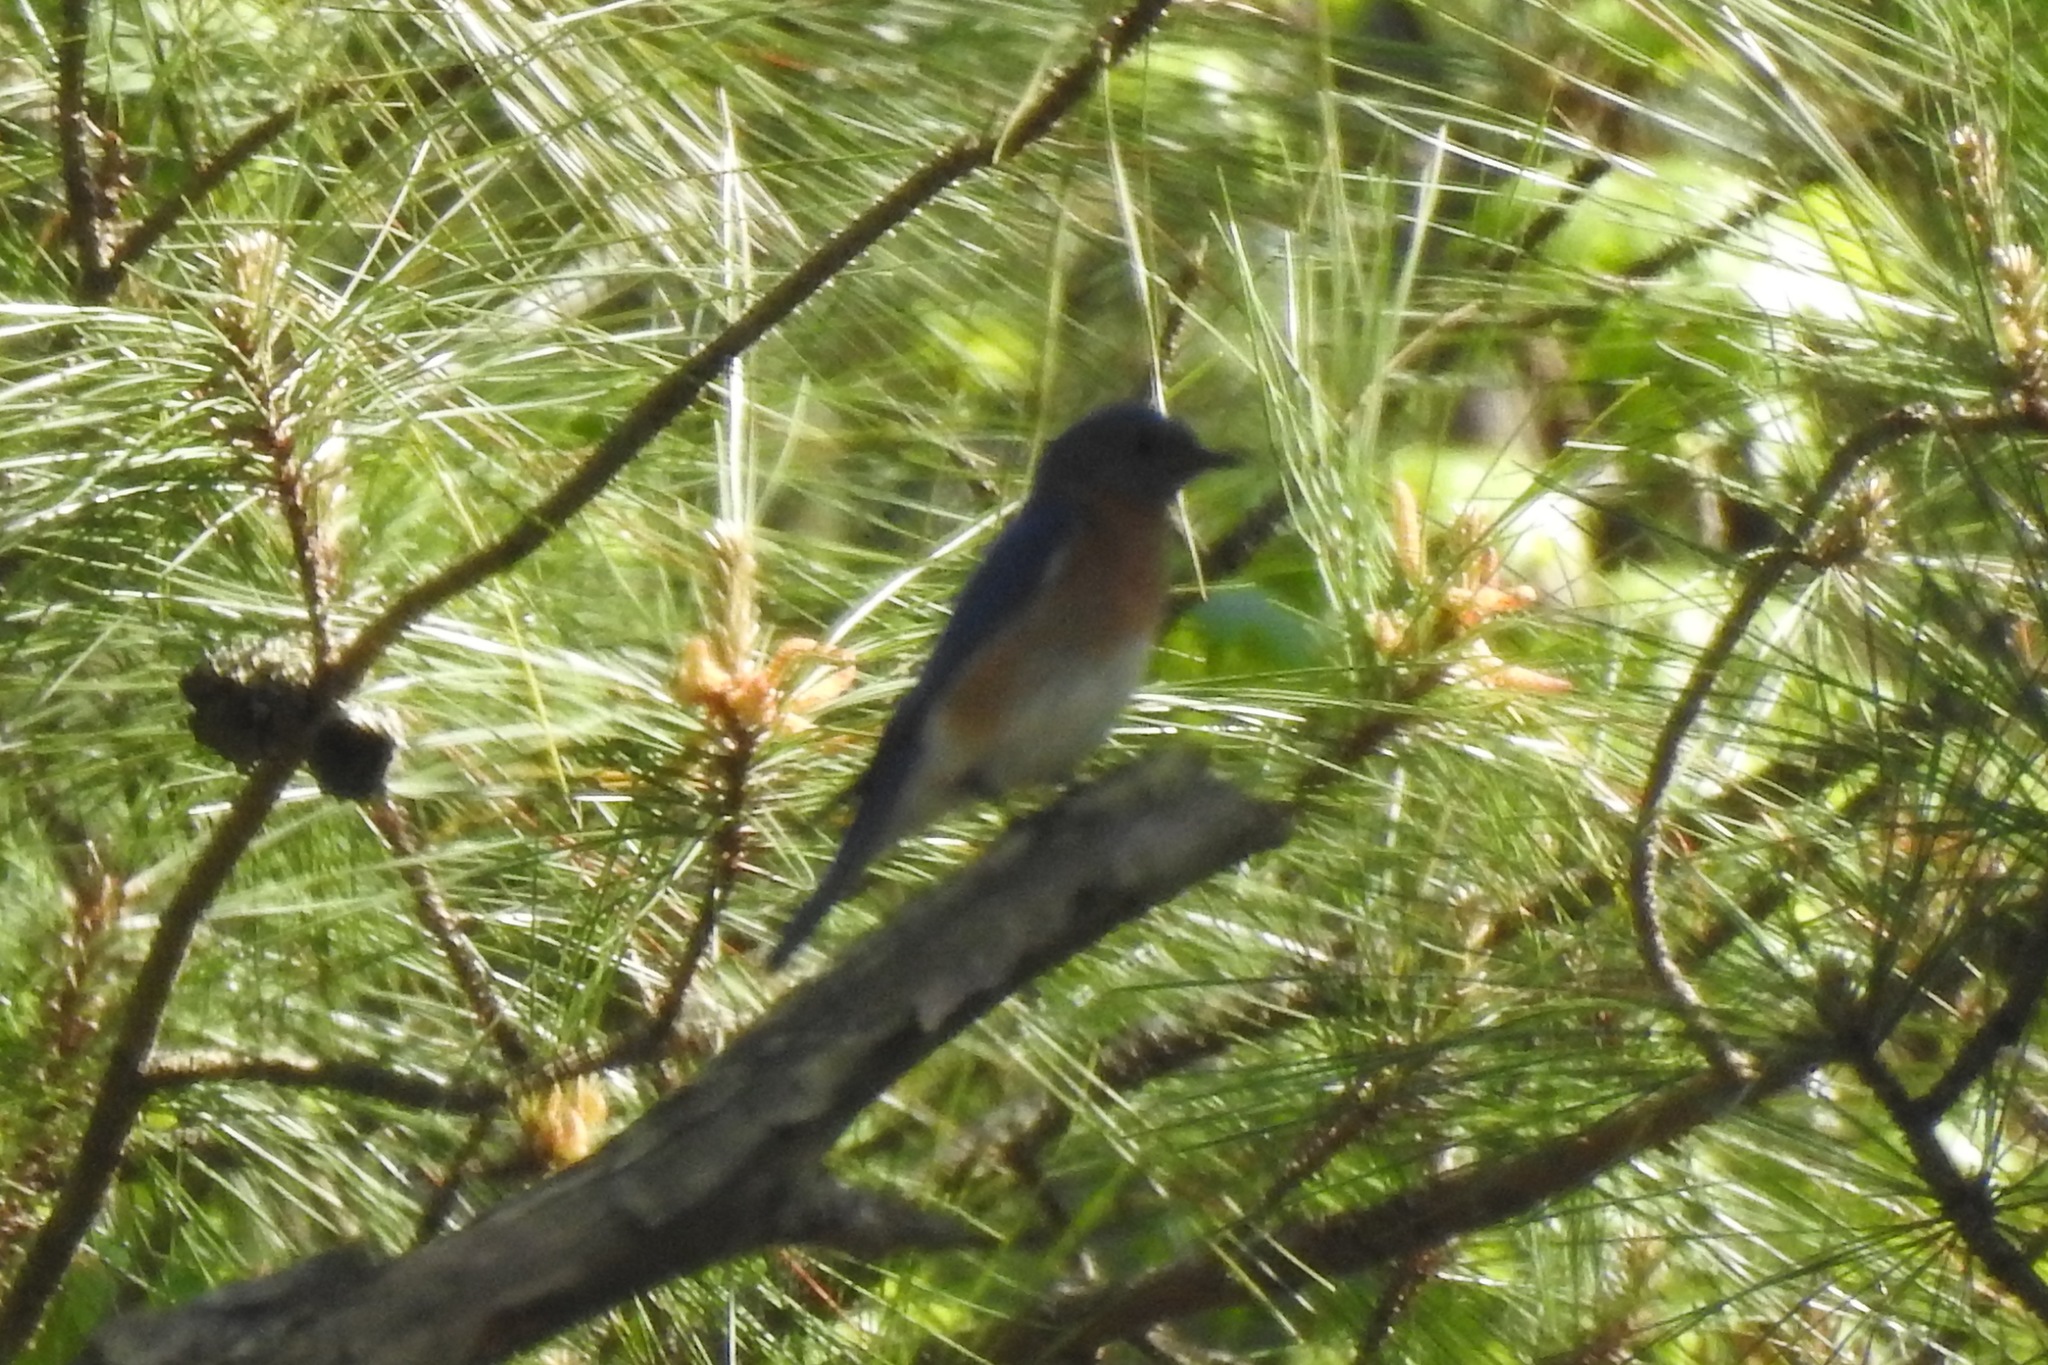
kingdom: Animalia
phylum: Chordata
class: Aves
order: Passeriformes
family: Turdidae
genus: Sialia
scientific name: Sialia sialis
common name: Eastern bluebird
